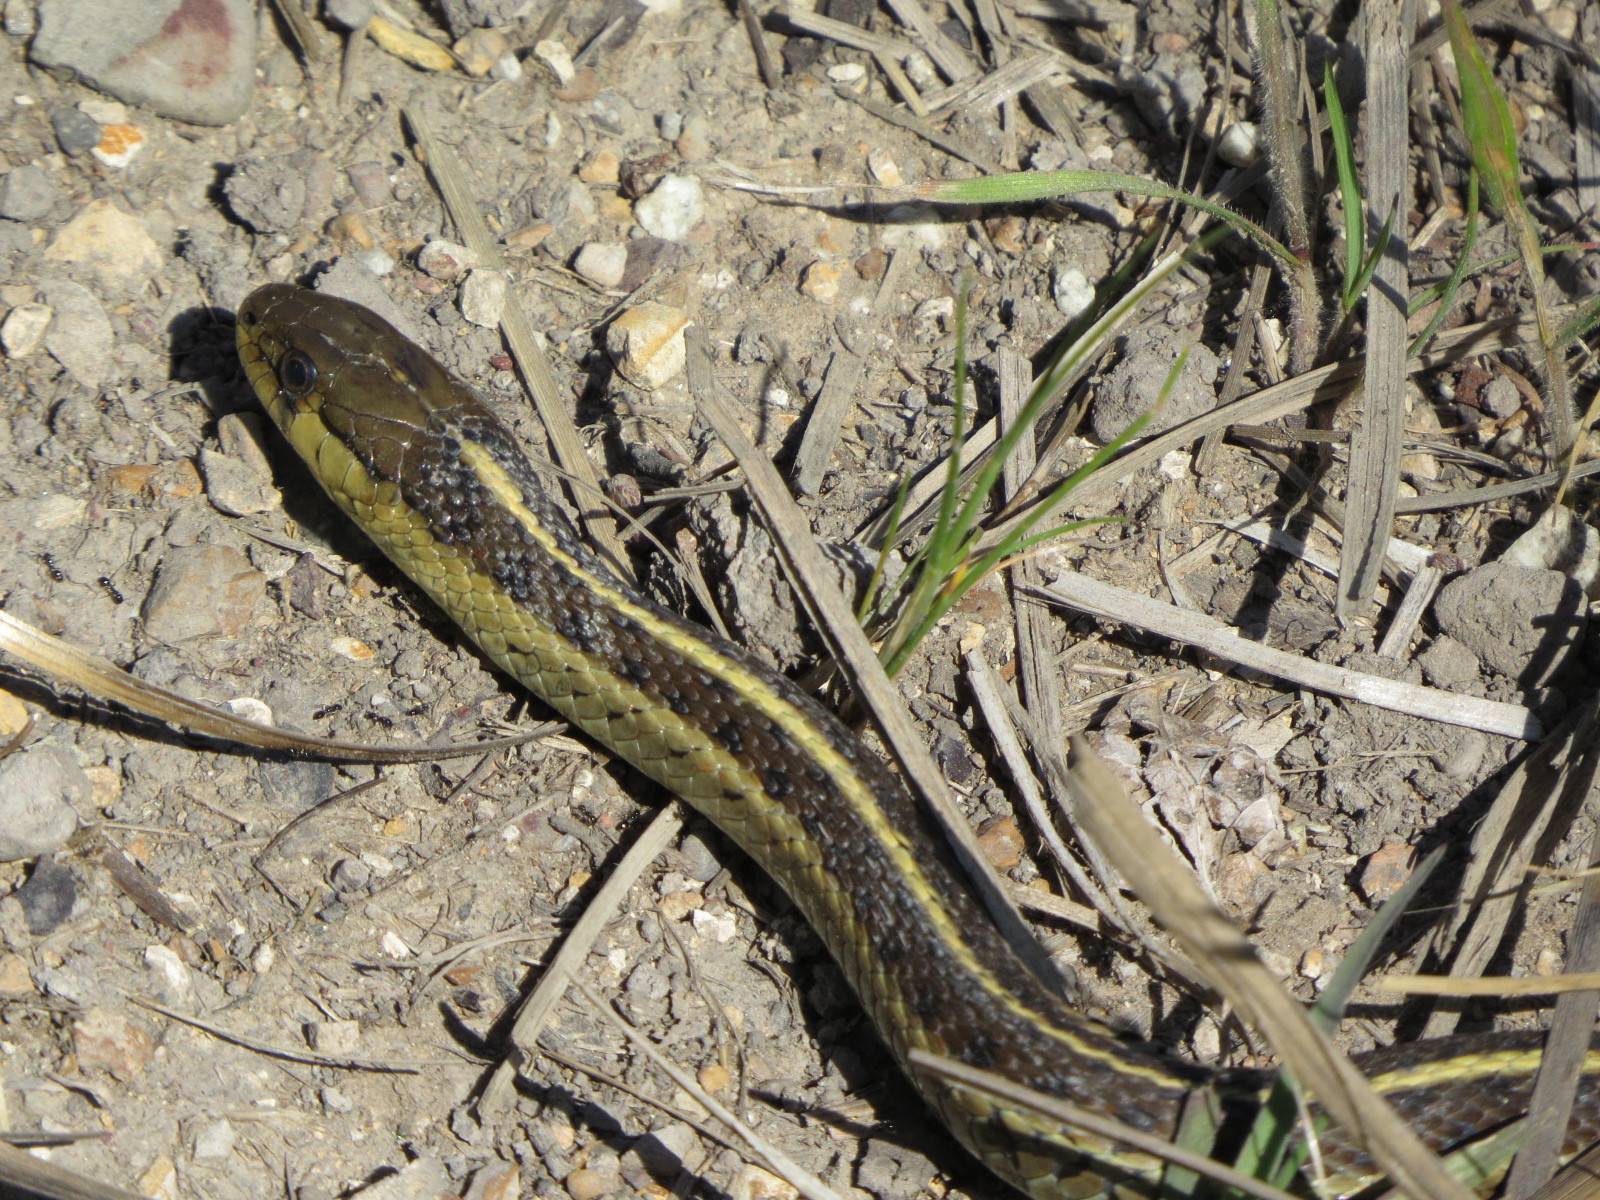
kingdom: Animalia
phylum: Chordata
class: Squamata
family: Colubridae
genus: Thamnophis
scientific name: Thamnophis elegans
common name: Western terrestrial garter snake
